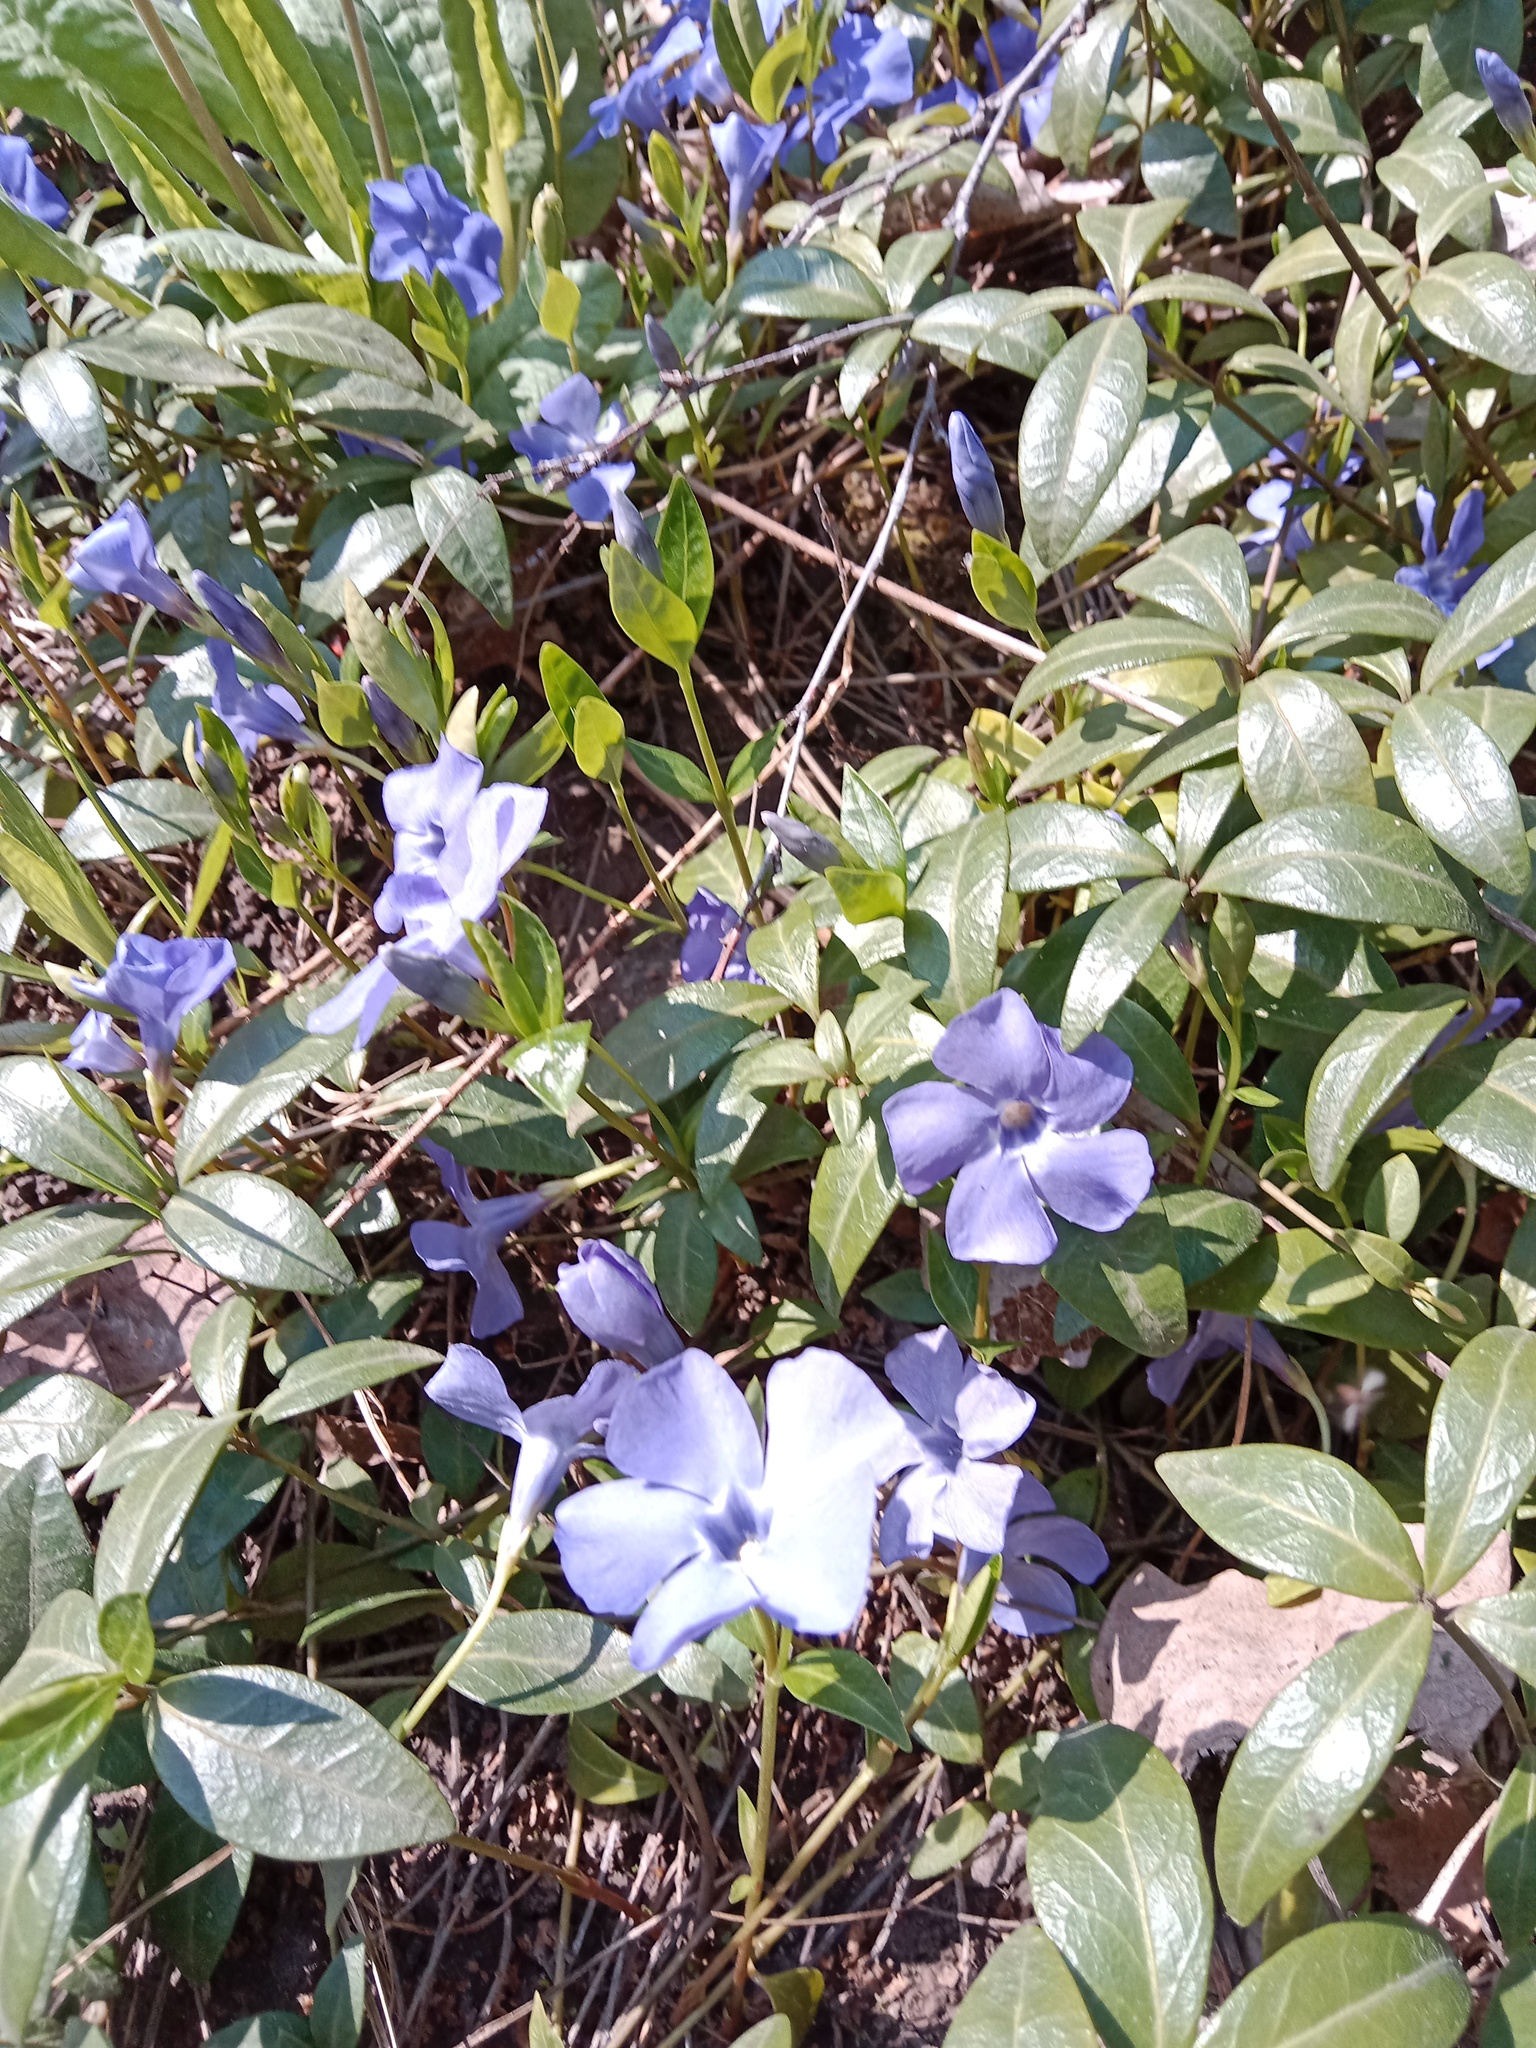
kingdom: Plantae
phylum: Tracheophyta
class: Magnoliopsida
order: Gentianales
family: Apocynaceae
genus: Vinca
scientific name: Vinca minor
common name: Lesser periwinkle
